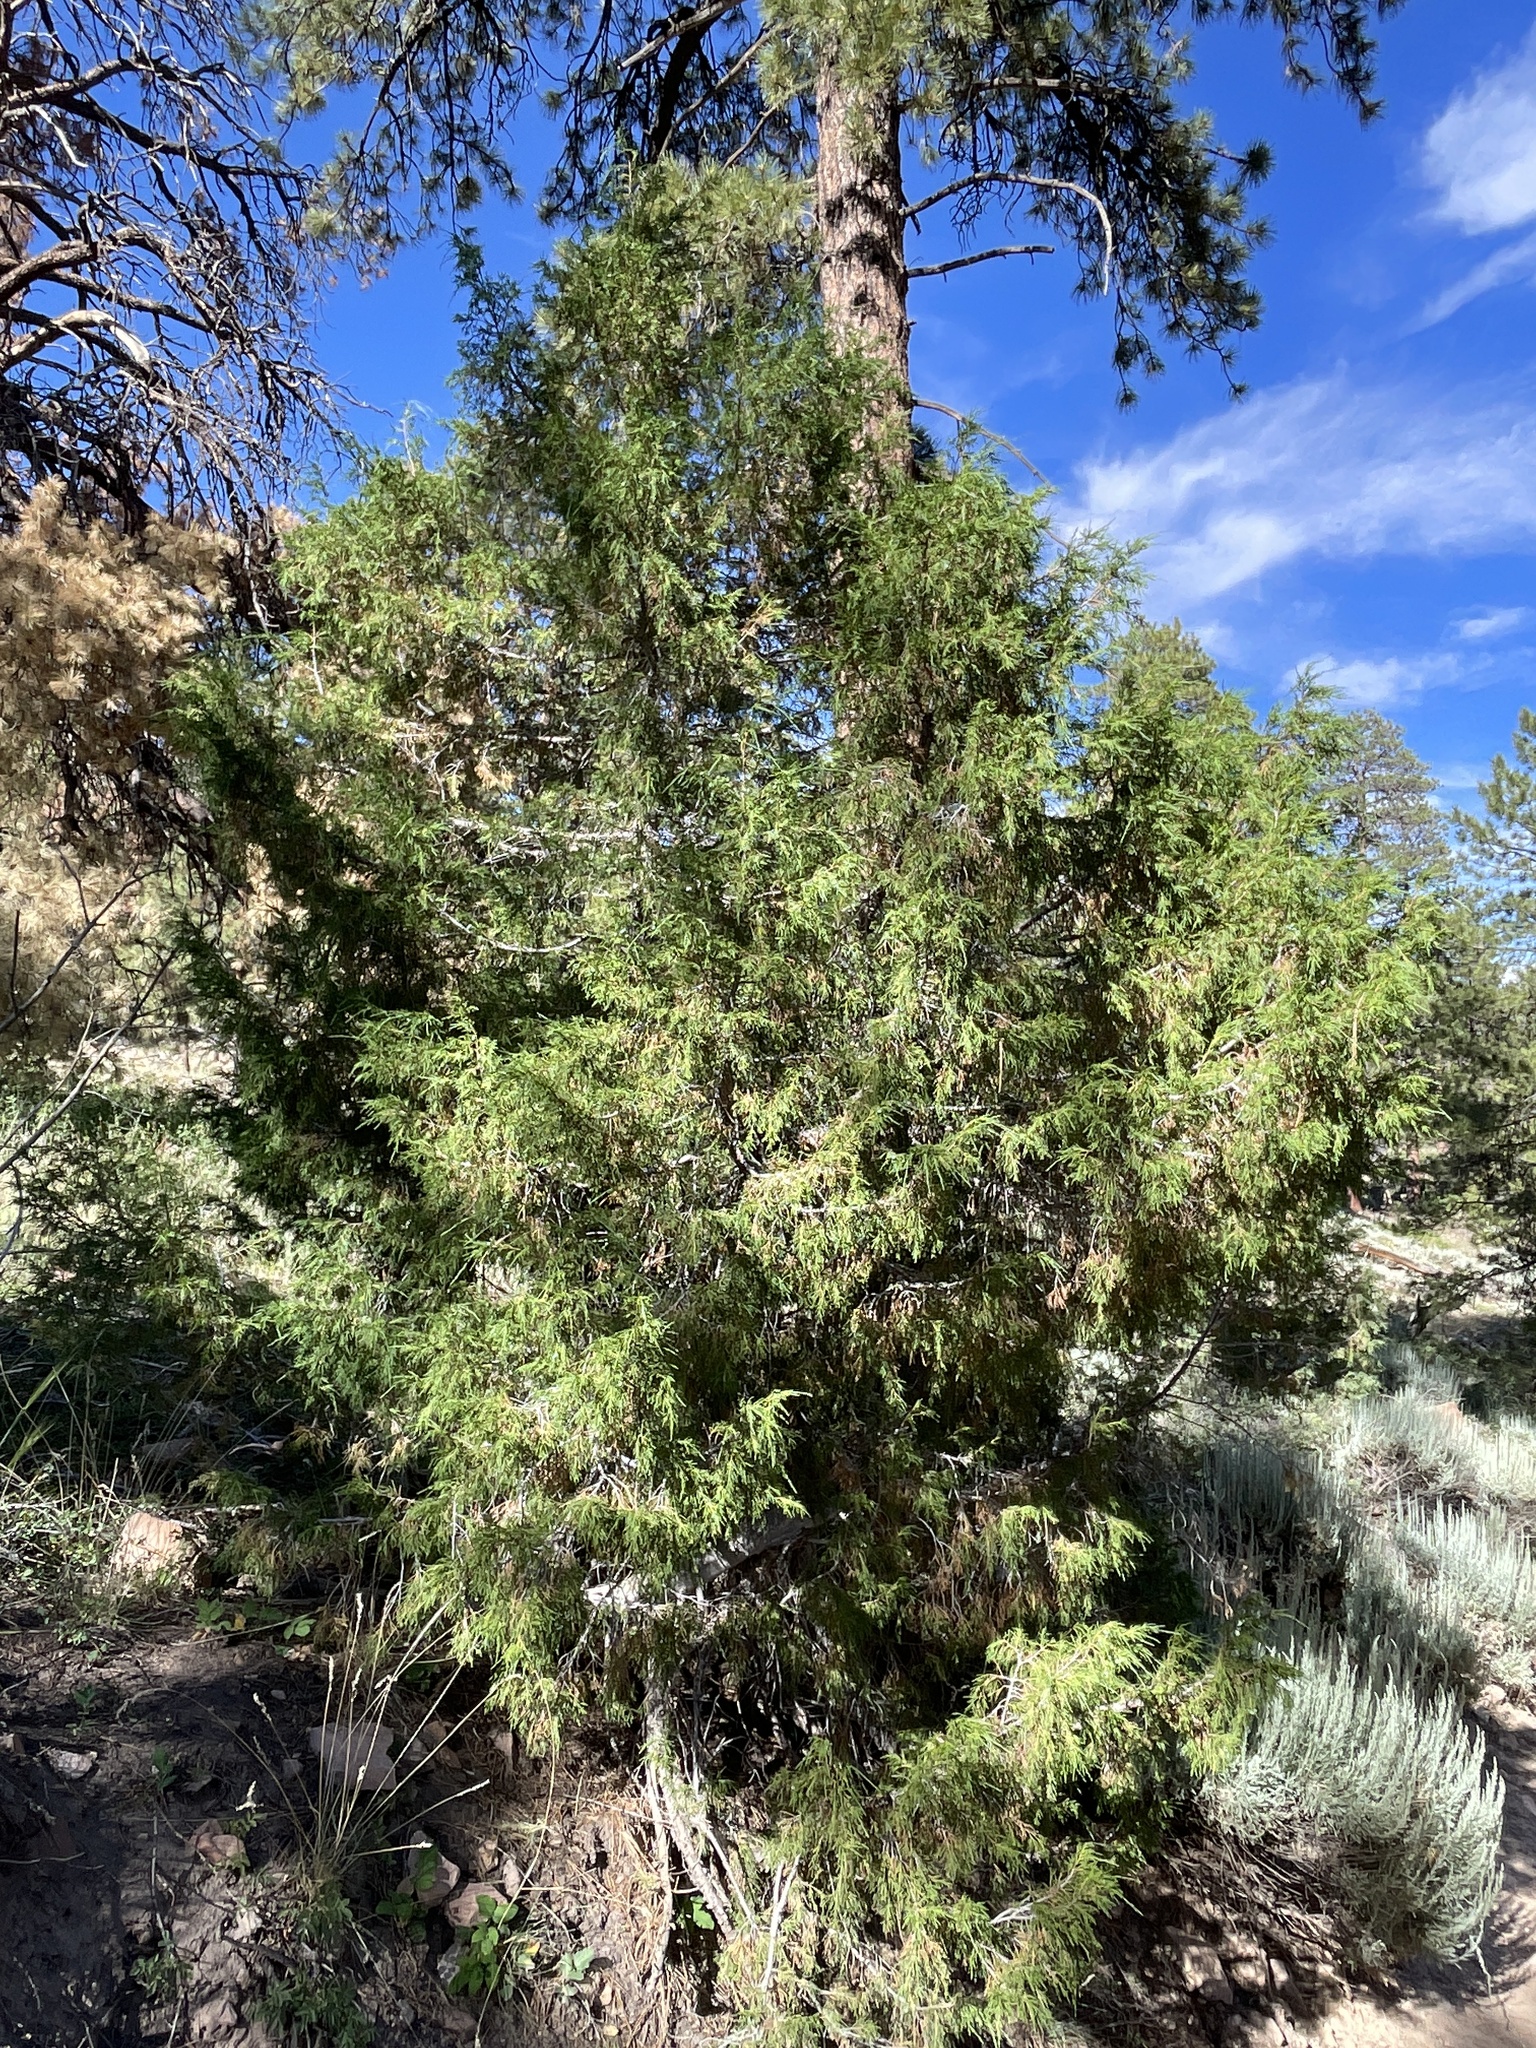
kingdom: Plantae
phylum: Tracheophyta
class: Pinopsida
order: Pinales
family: Cupressaceae
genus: Juniperus
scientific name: Juniperus scopulorum
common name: Rocky mountain juniper
